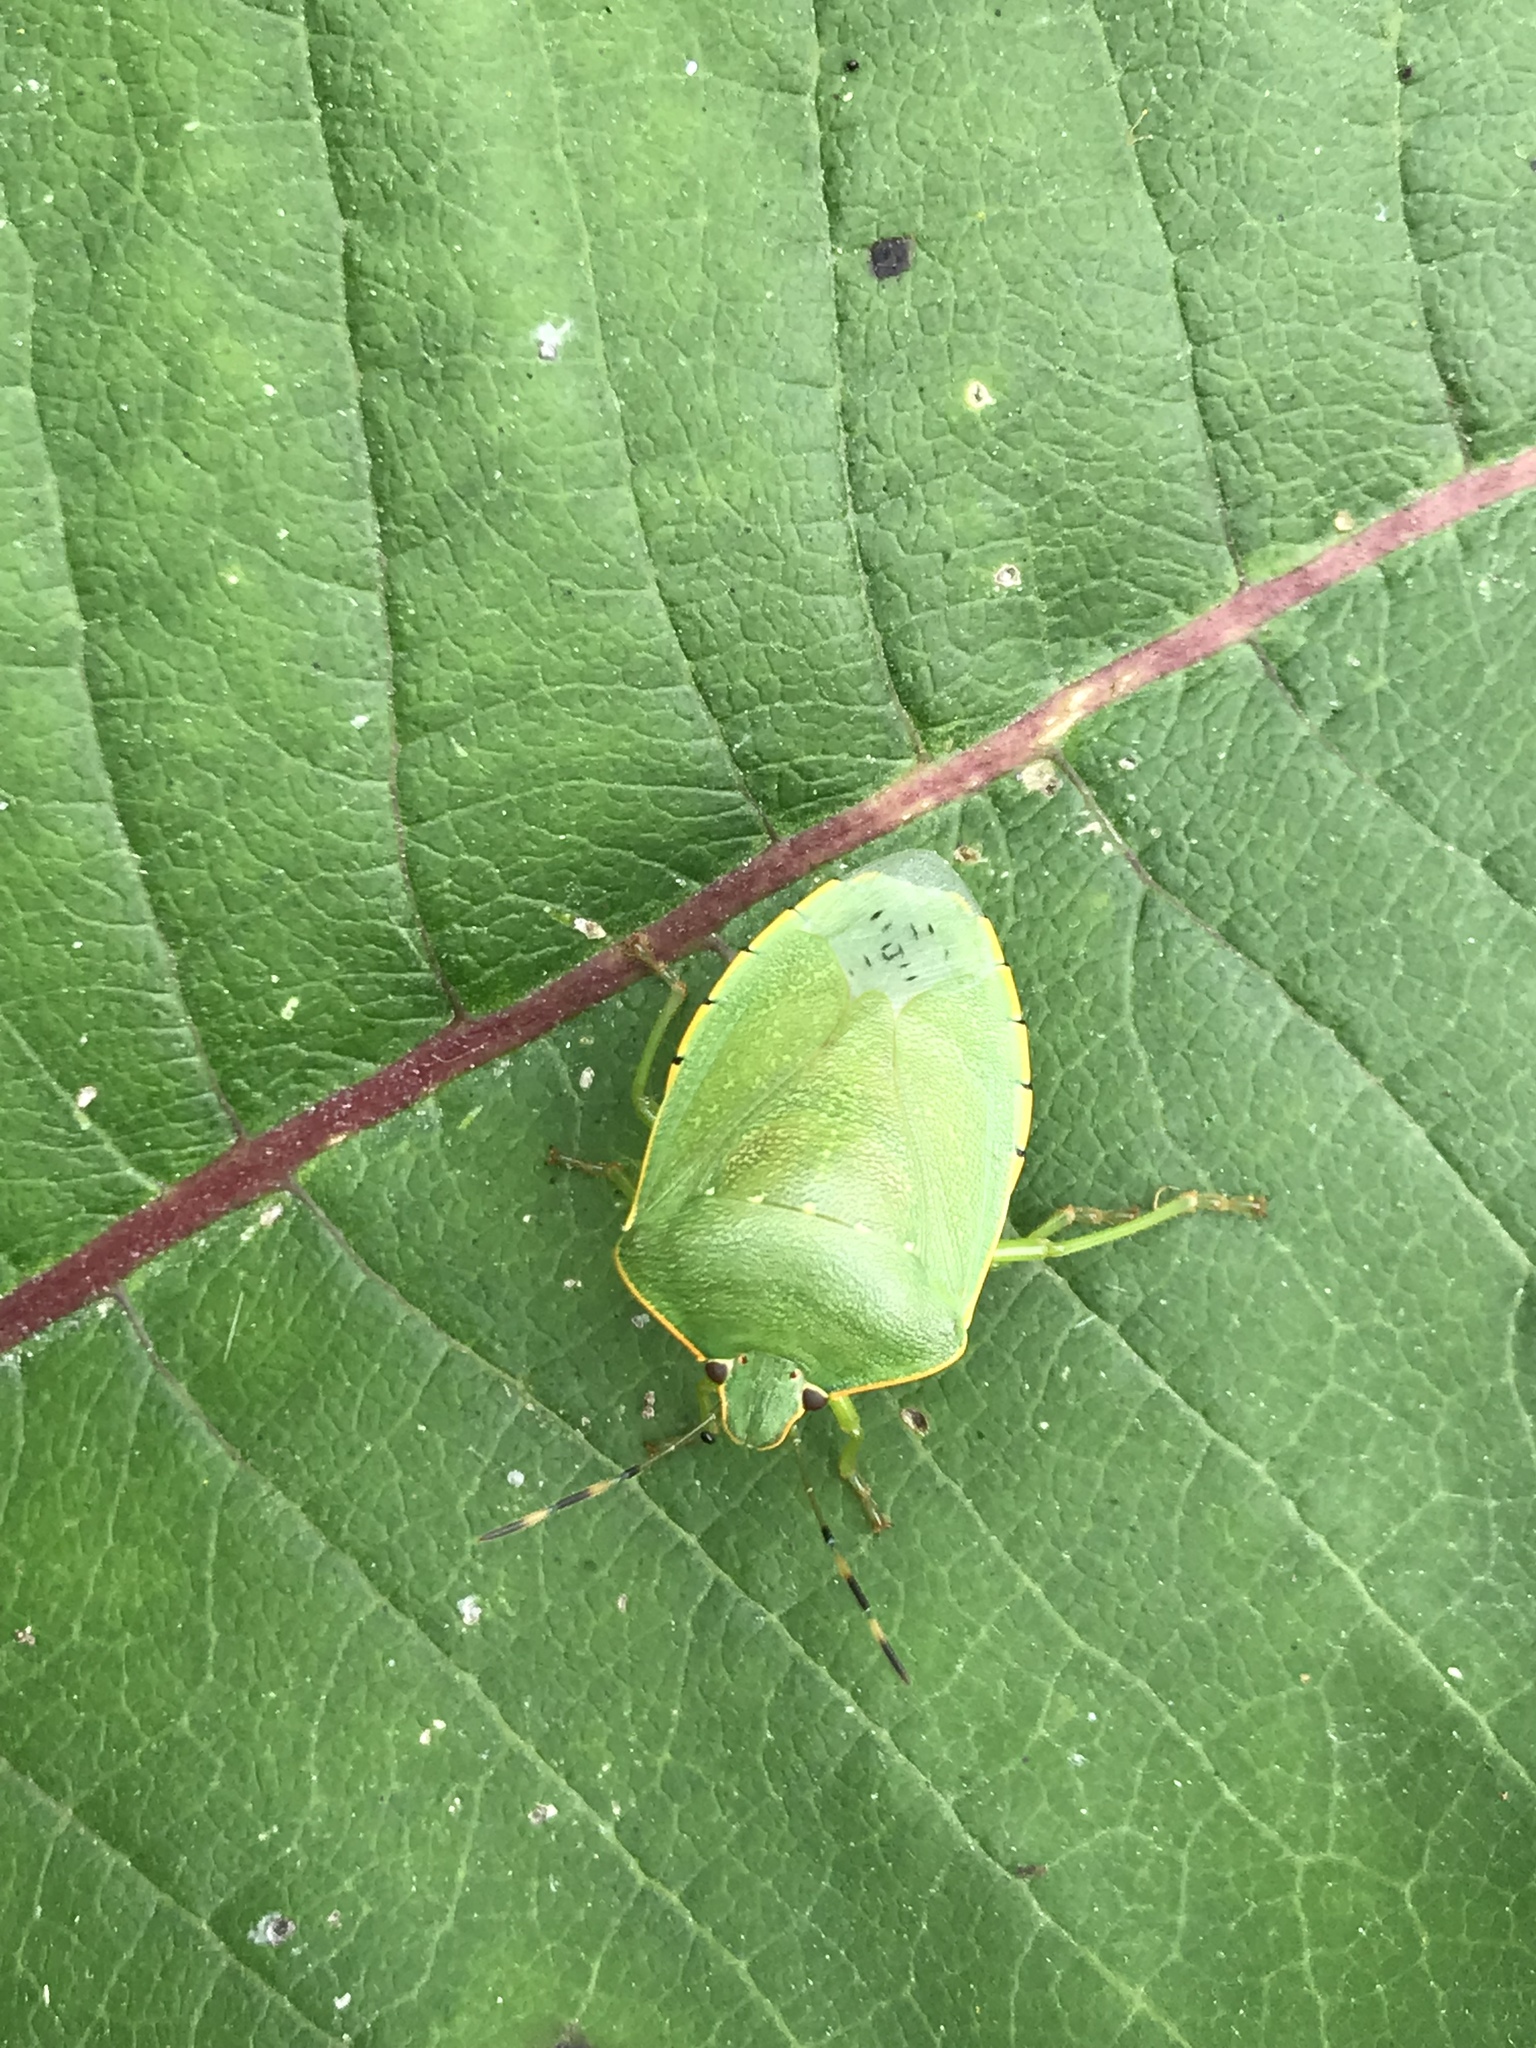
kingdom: Animalia
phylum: Arthropoda
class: Insecta
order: Hemiptera
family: Pentatomidae
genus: Chinavia
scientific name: Chinavia hilaris
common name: Green stink bug
